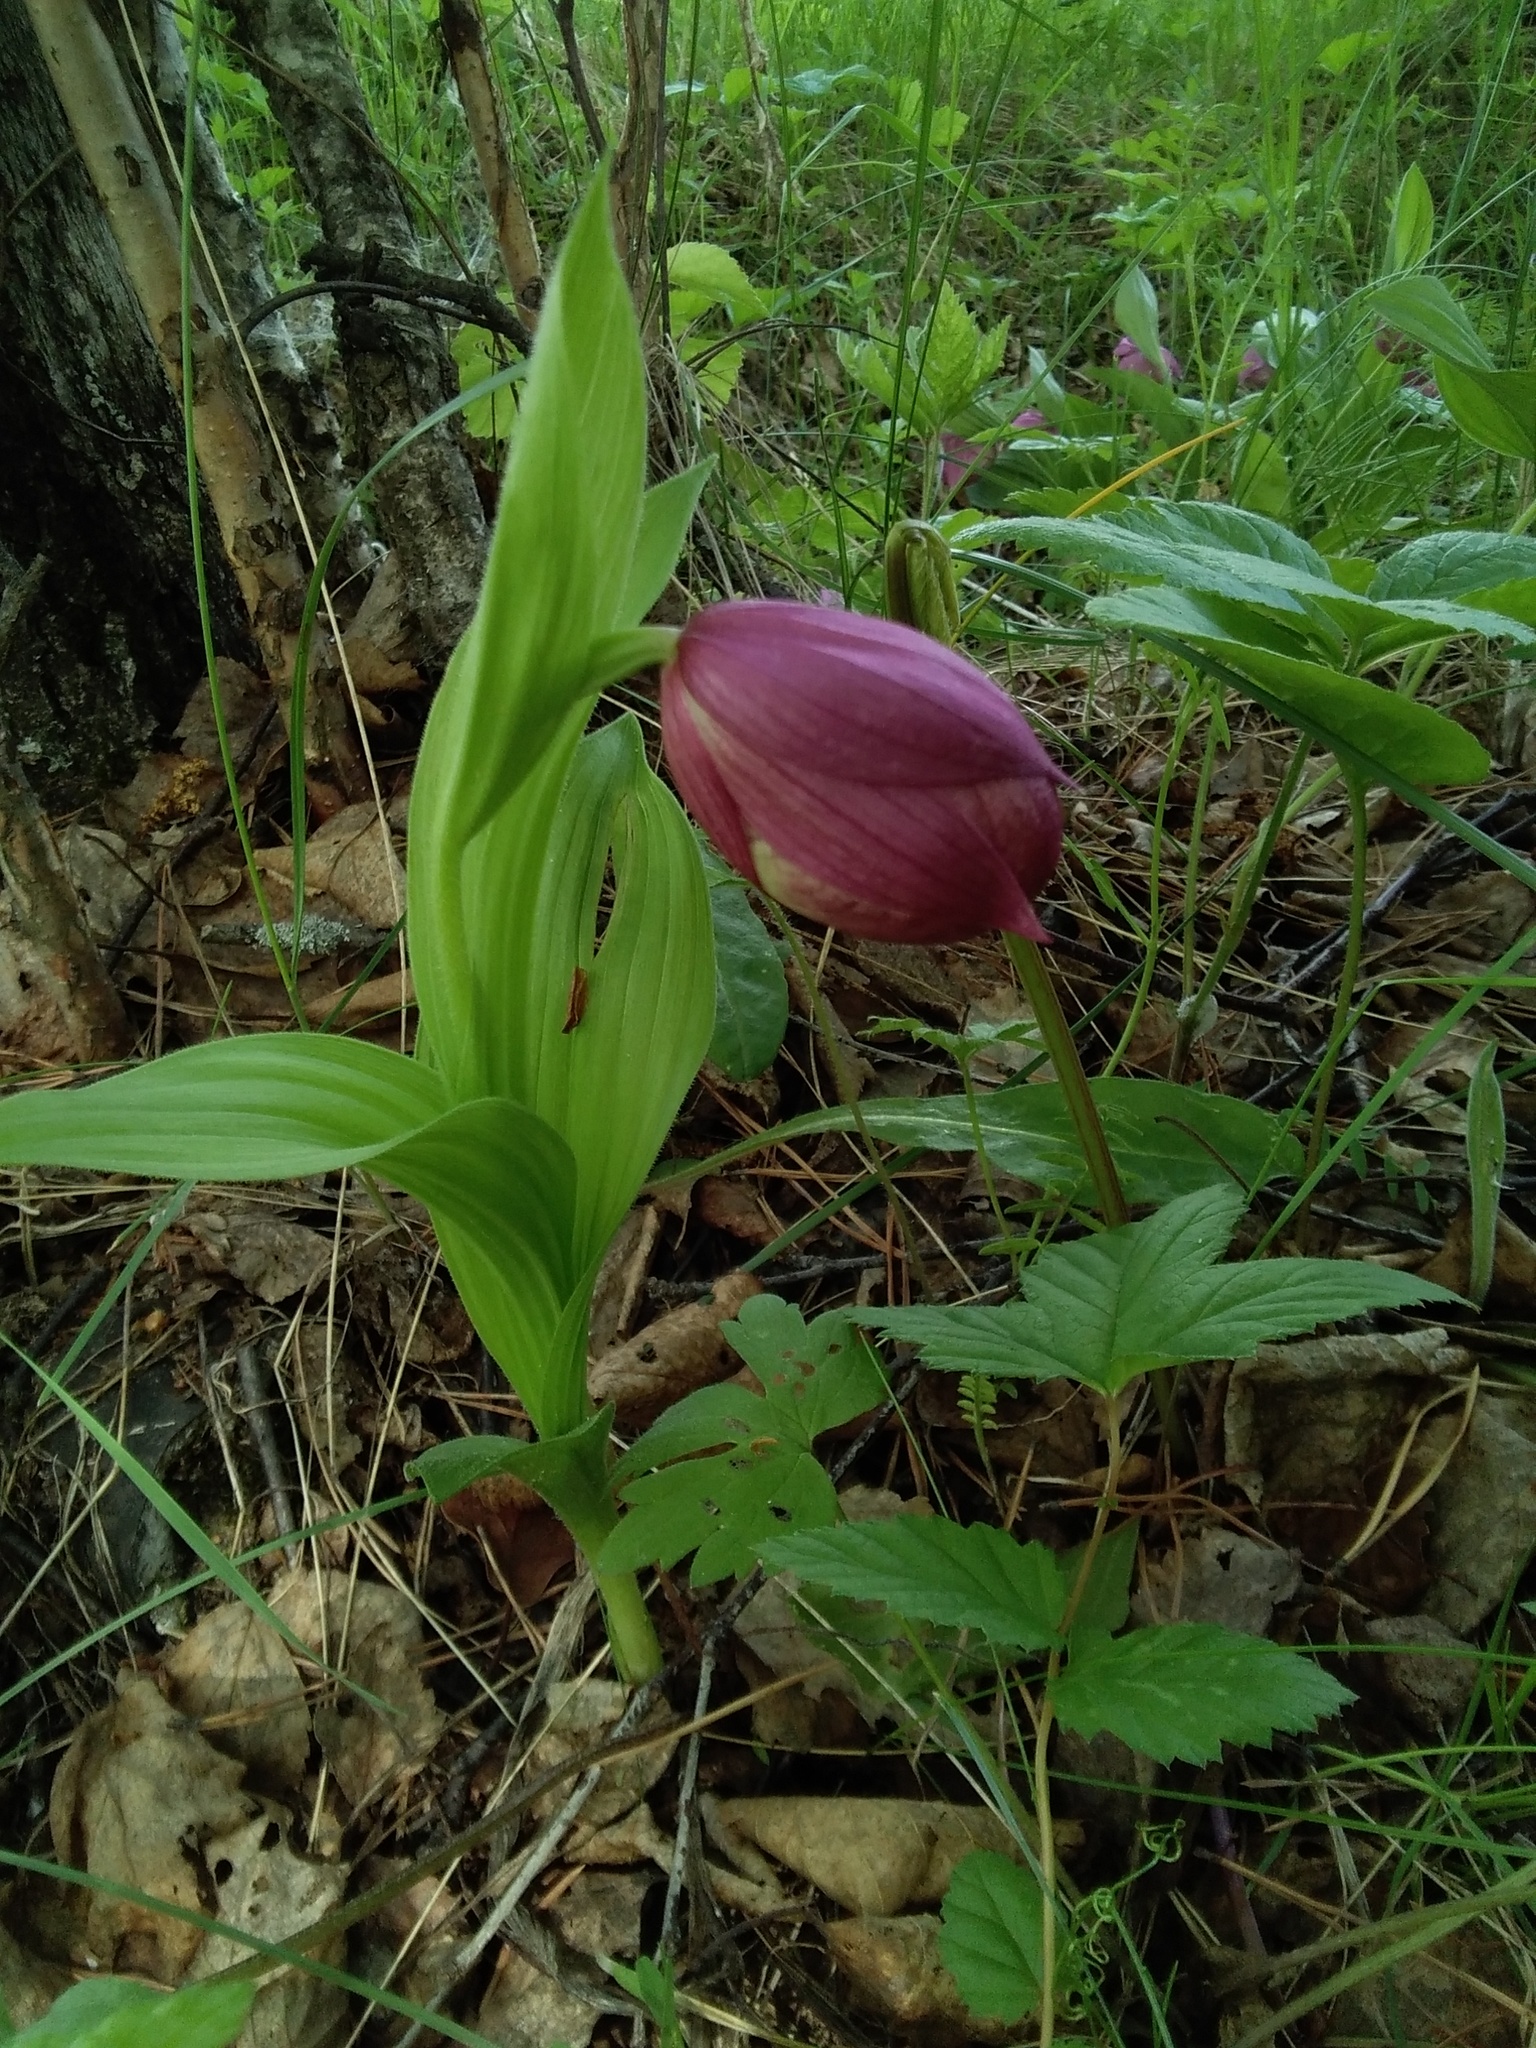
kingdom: Plantae
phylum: Tracheophyta
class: Liliopsida
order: Asparagales
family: Orchidaceae
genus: Cypripedium
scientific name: Cypripedium macranthos
